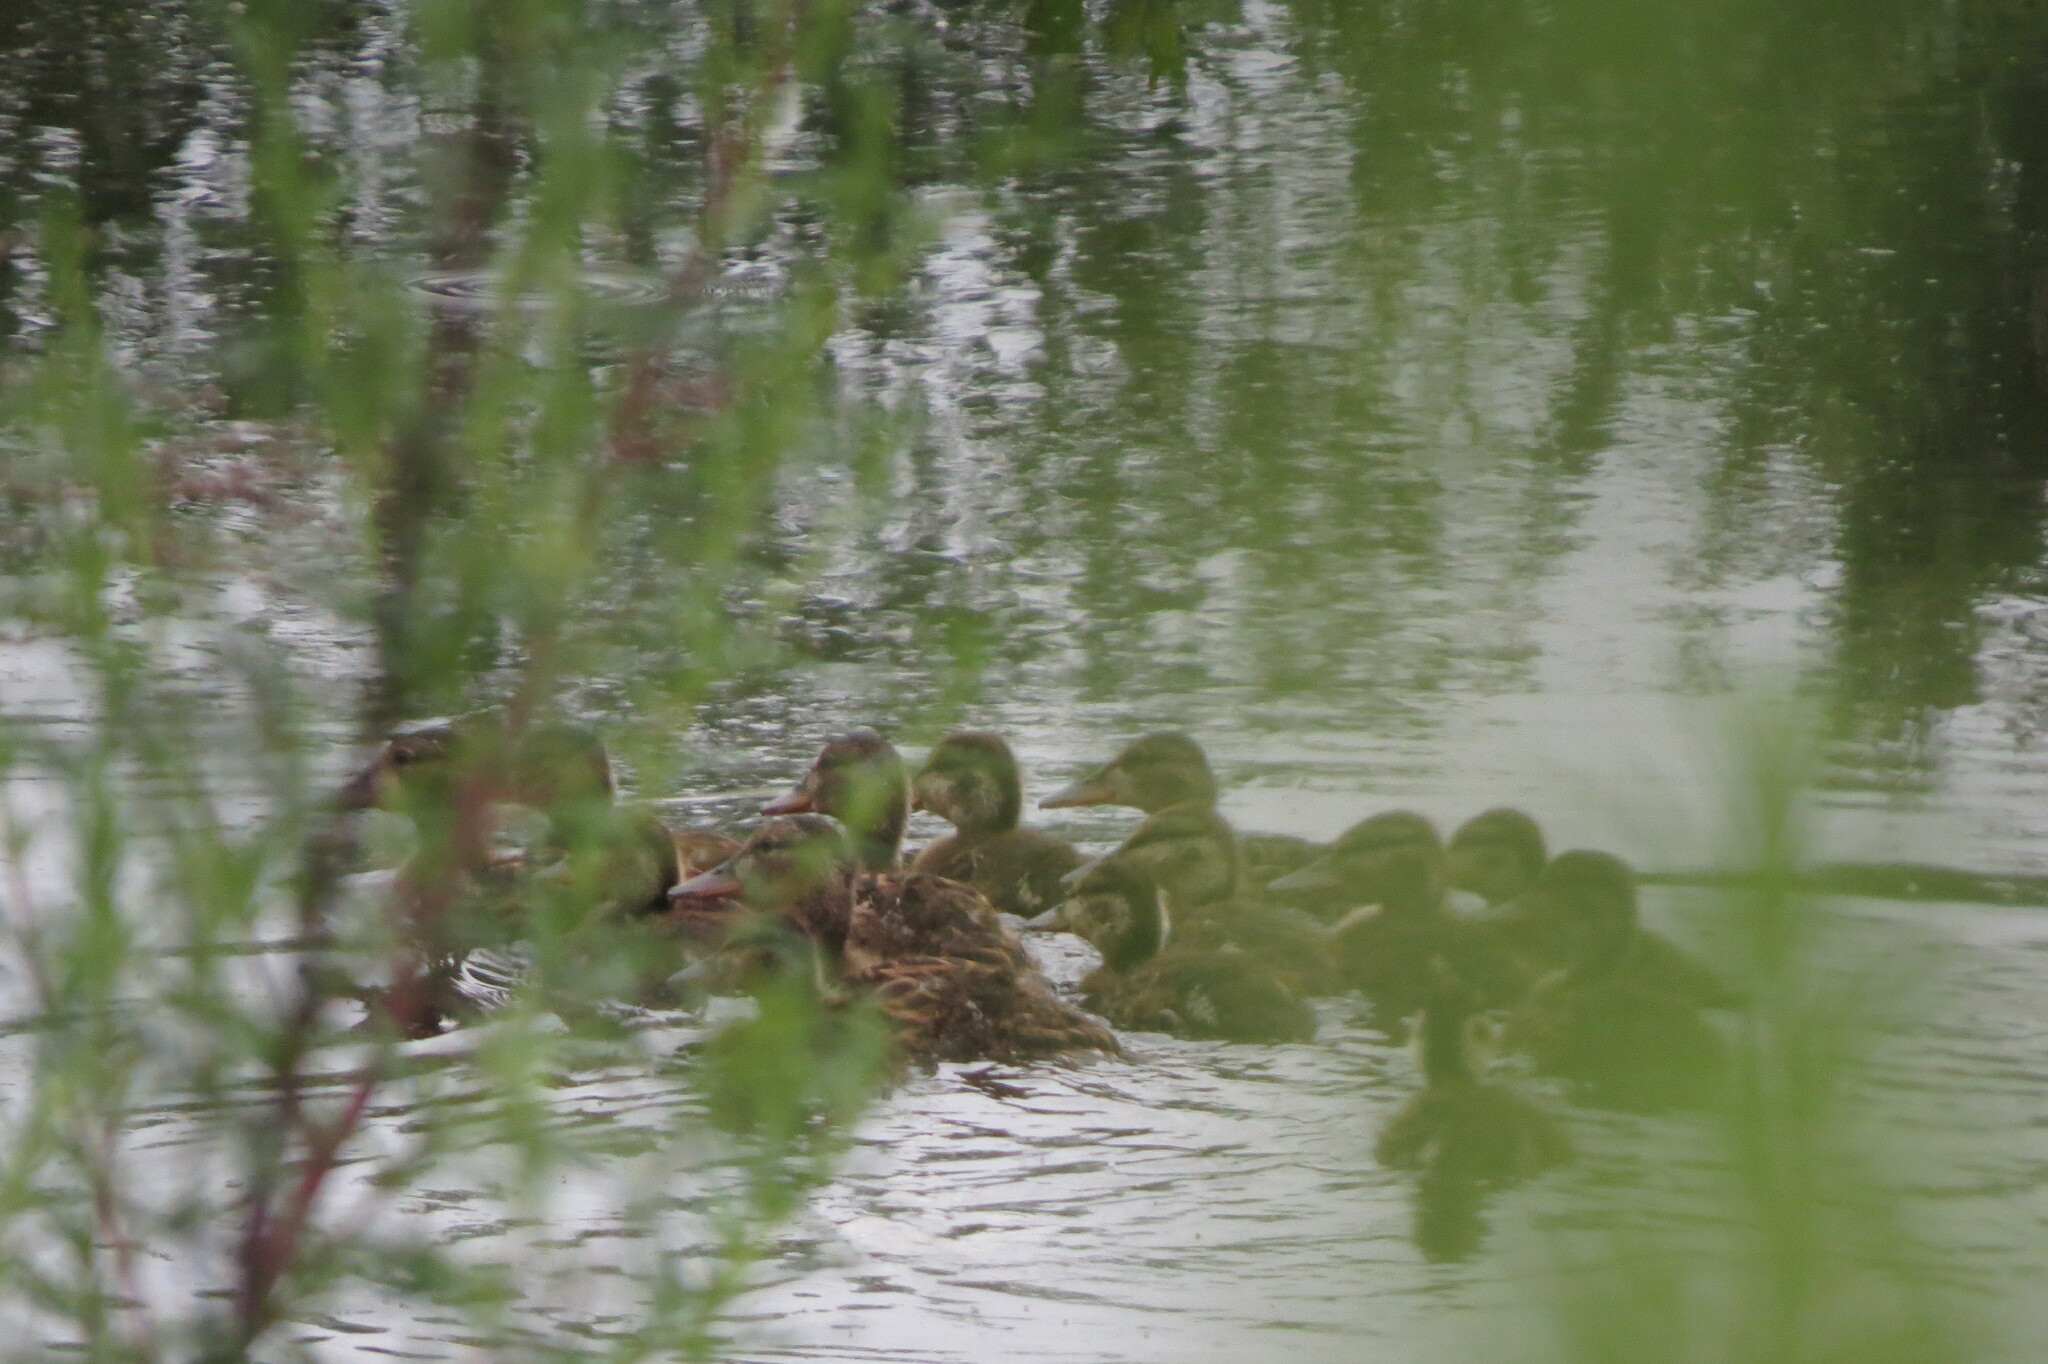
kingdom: Animalia
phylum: Chordata
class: Aves
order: Anseriformes
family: Anatidae
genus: Anas
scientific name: Anas platyrhynchos
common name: Mallard
